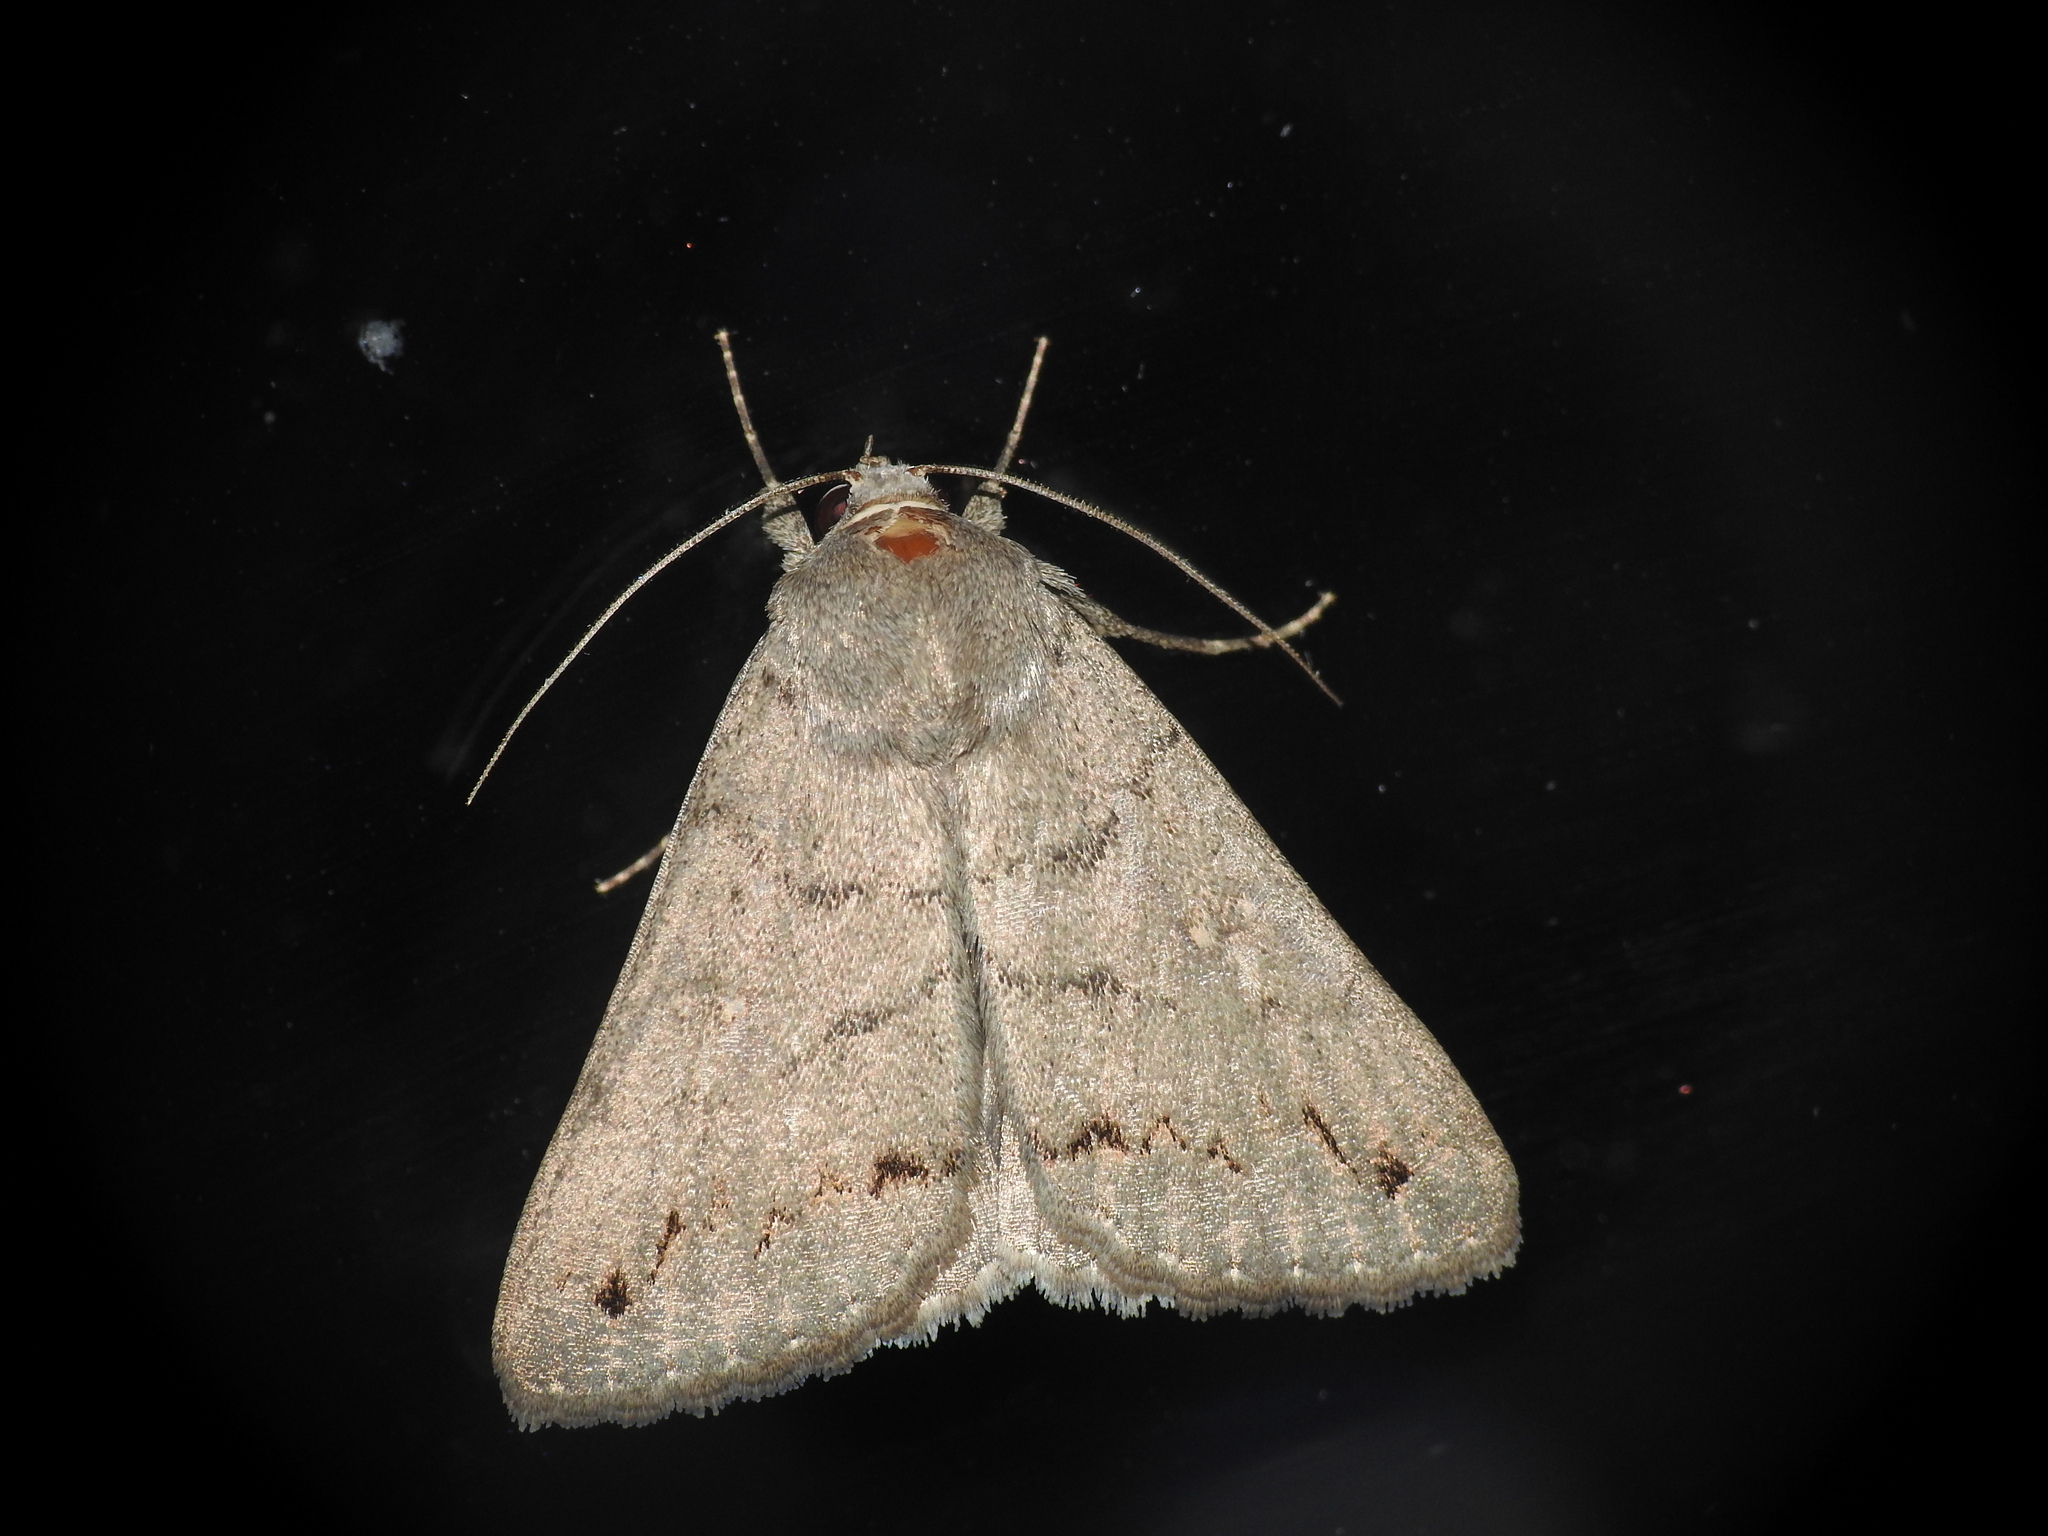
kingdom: Animalia
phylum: Arthropoda
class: Insecta
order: Lepidoptera
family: Erebidae
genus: Clytie
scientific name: Clytie illunaris
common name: Trent double-stripe
